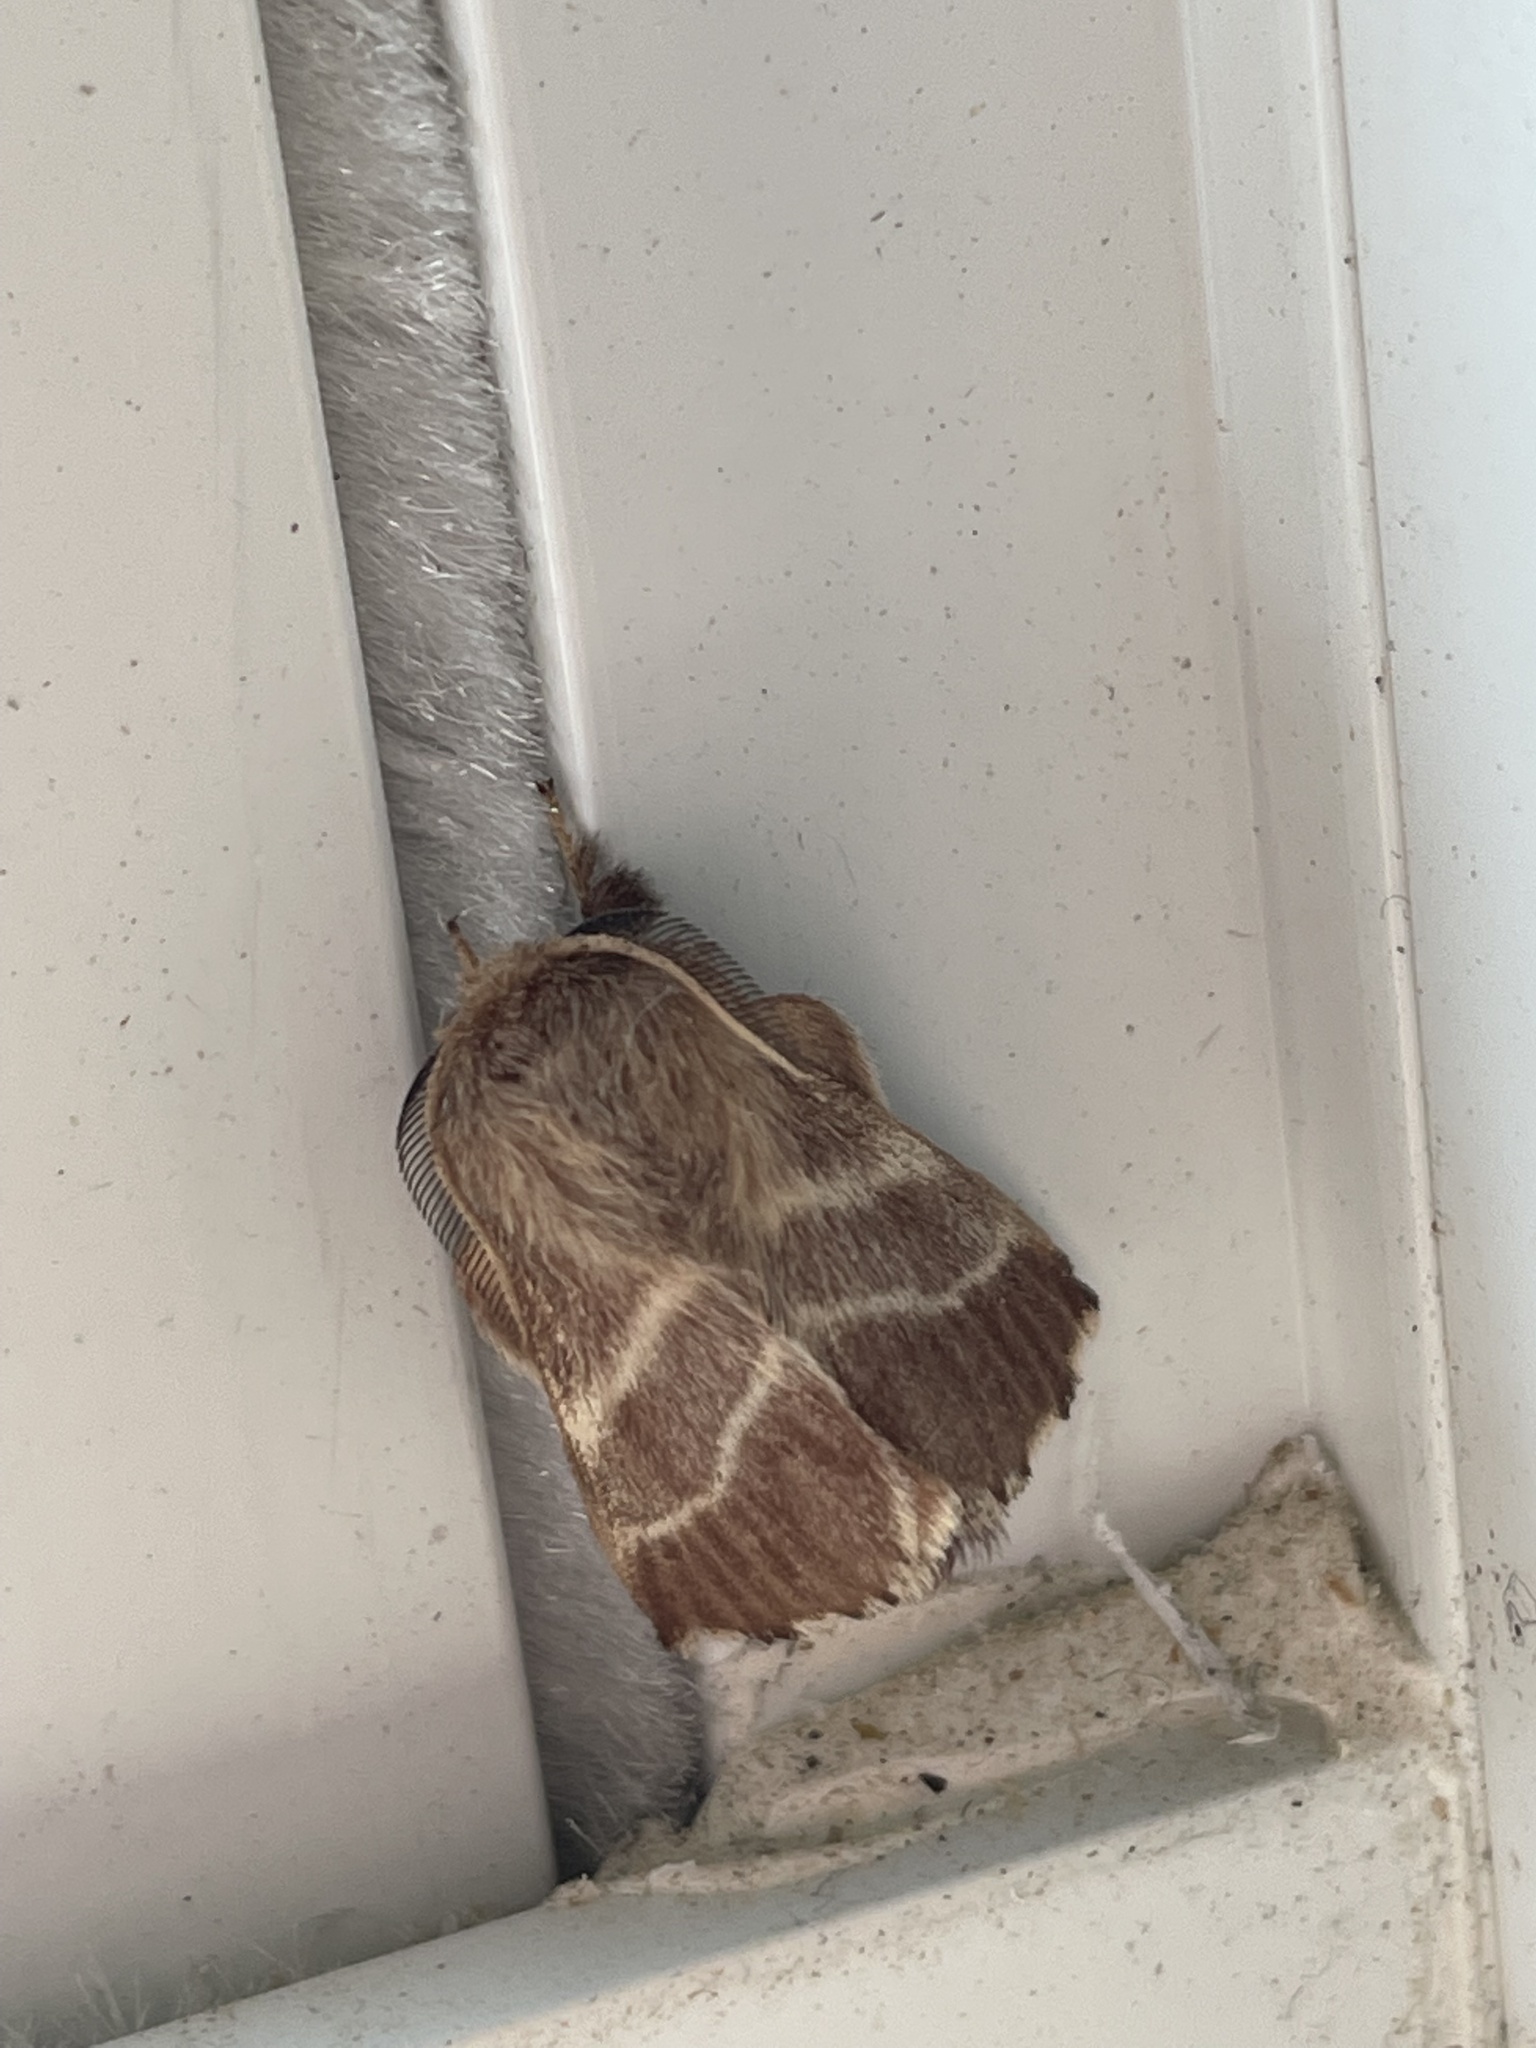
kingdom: Animalia
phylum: Arthropoda
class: Insecta
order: Lepidoptera
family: Lasiocampidae
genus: Malacosoma
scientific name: Malacosoma americana
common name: Eastern tent caterpillar moth
